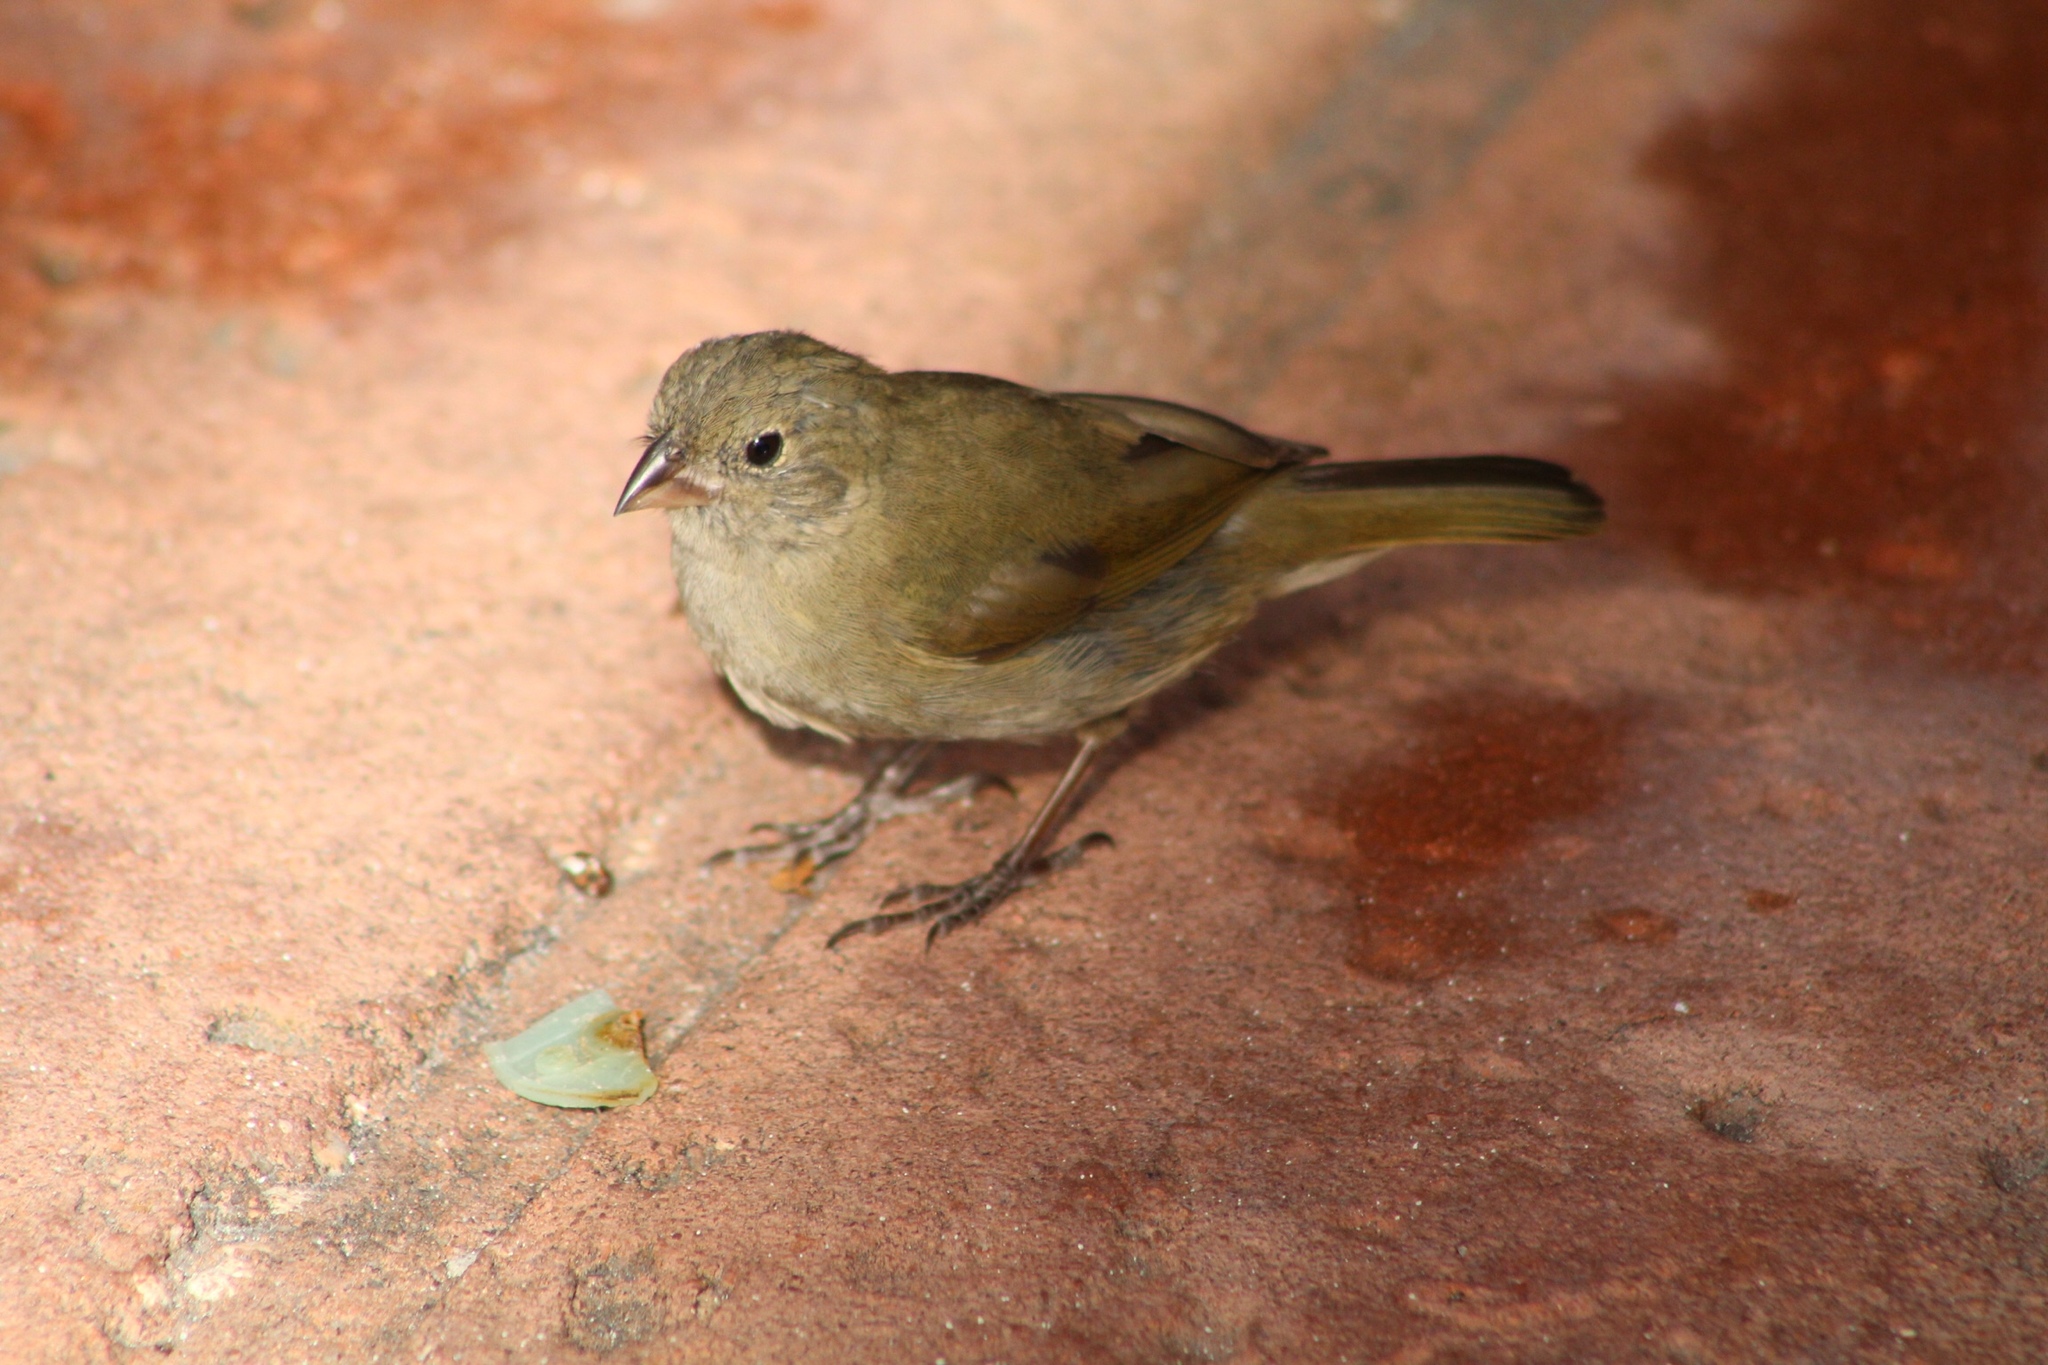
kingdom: Animalia
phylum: Chordata
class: Aves
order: Passeriformes
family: Thraupidae
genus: Melanospiza
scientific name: Melanospiza bicolor
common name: Black-faced grassquit
